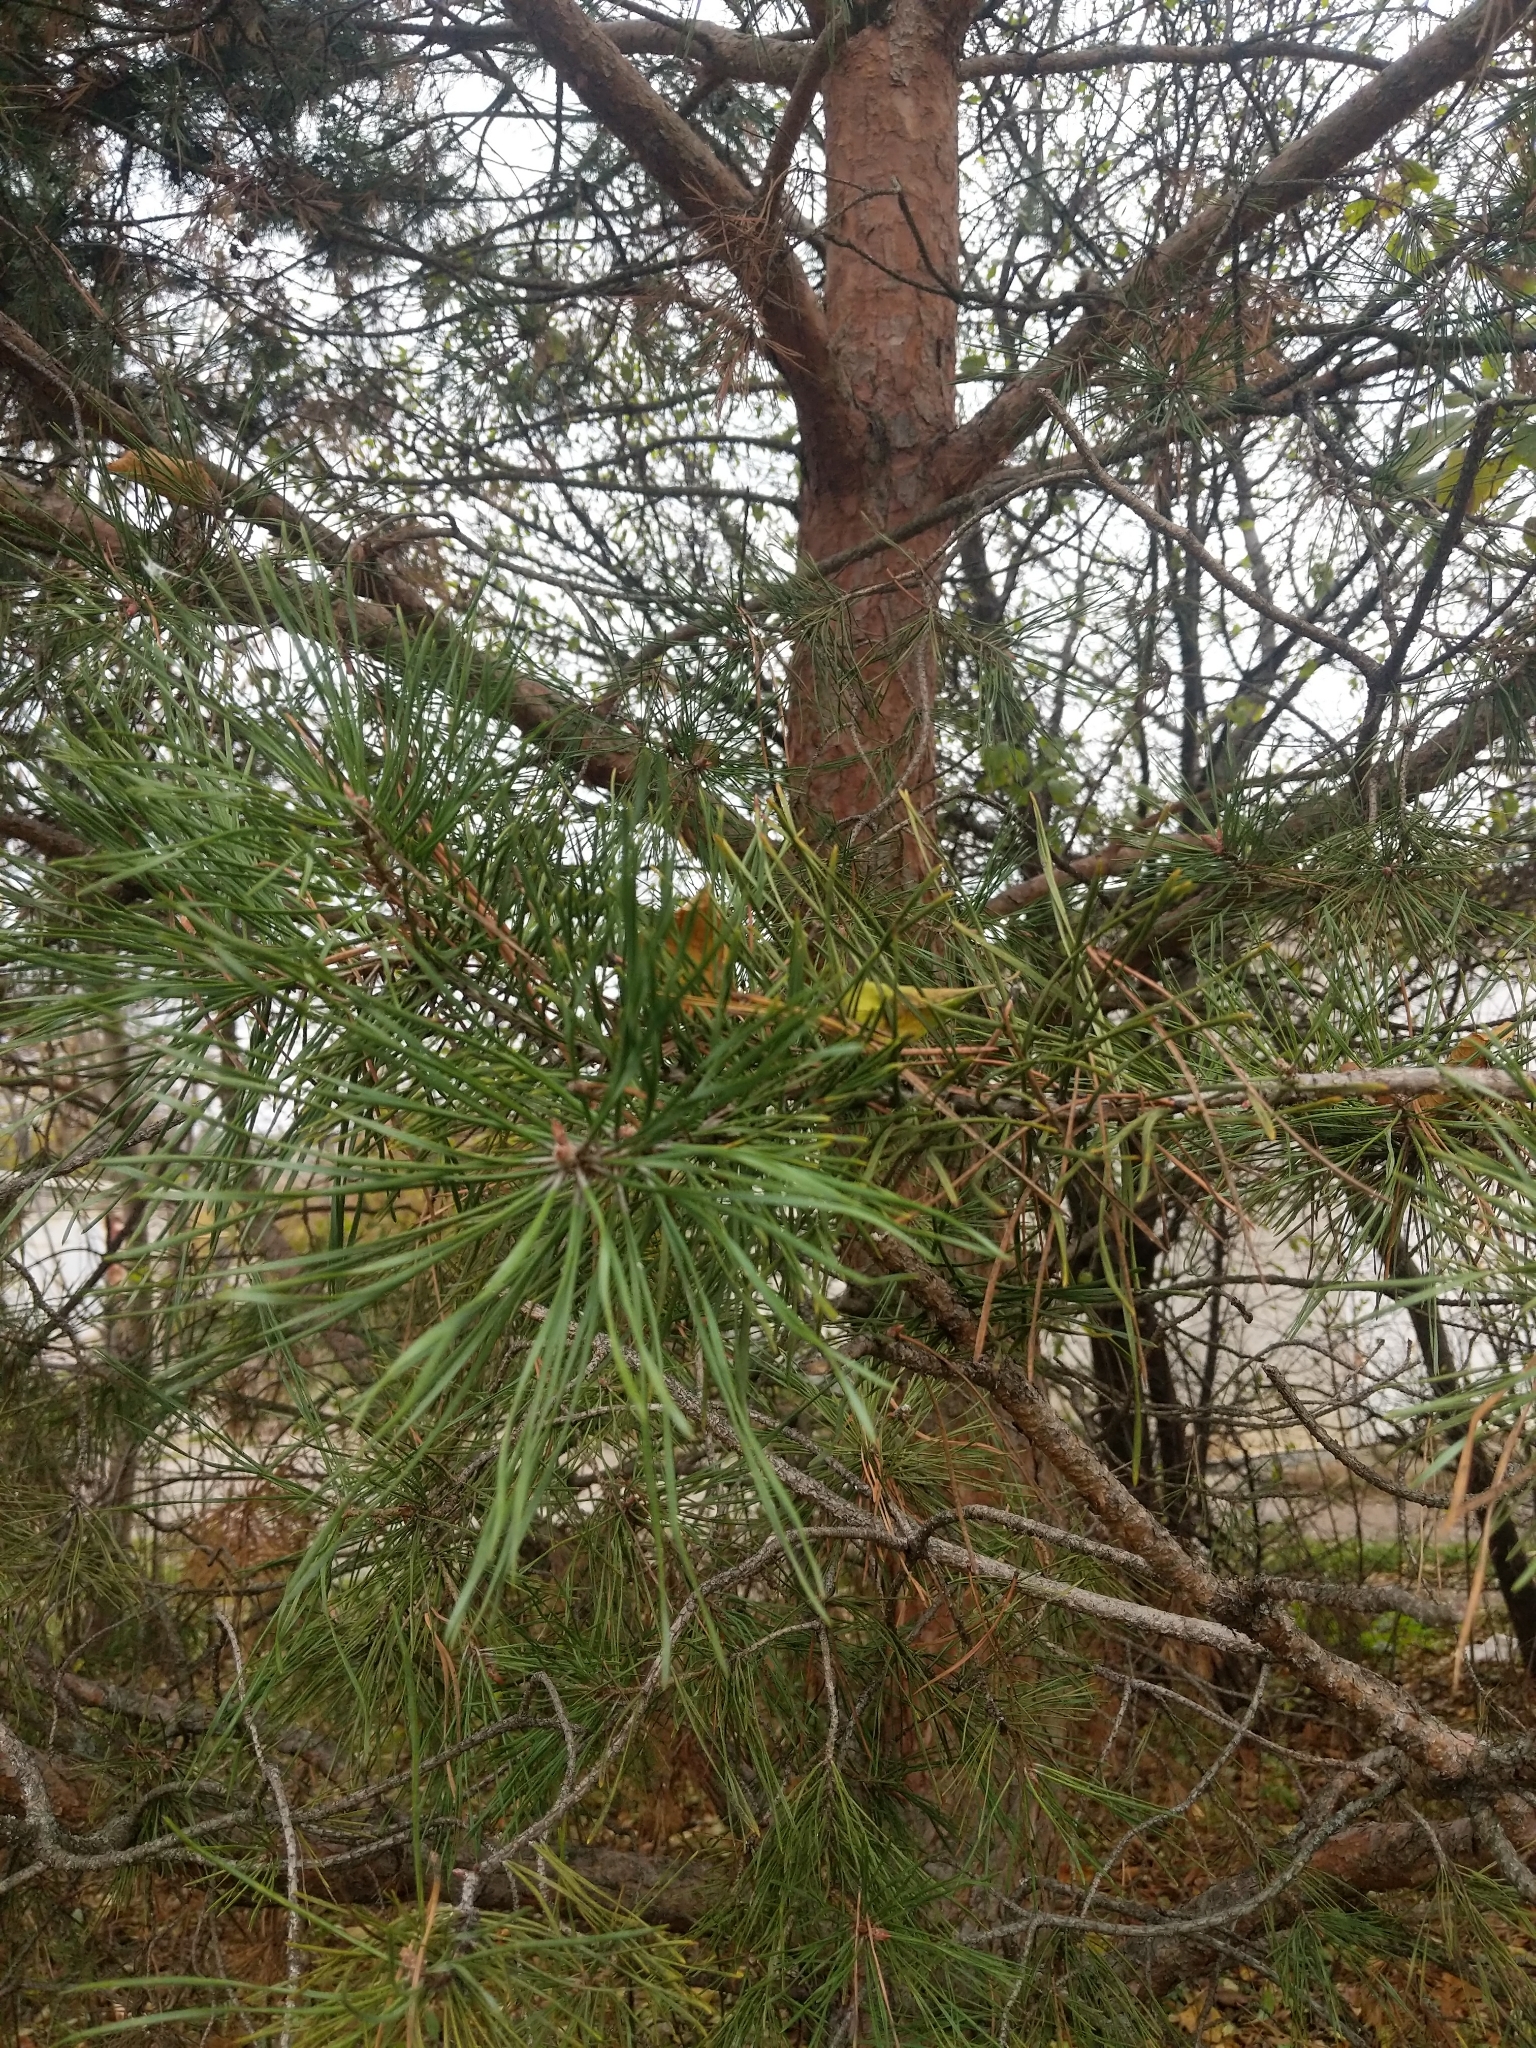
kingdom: Plantae
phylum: Tracheophyta
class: Pinopsida
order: Pinales
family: Pinaceae
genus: Pinus
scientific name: Pinus sylvestris
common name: Scots pine
